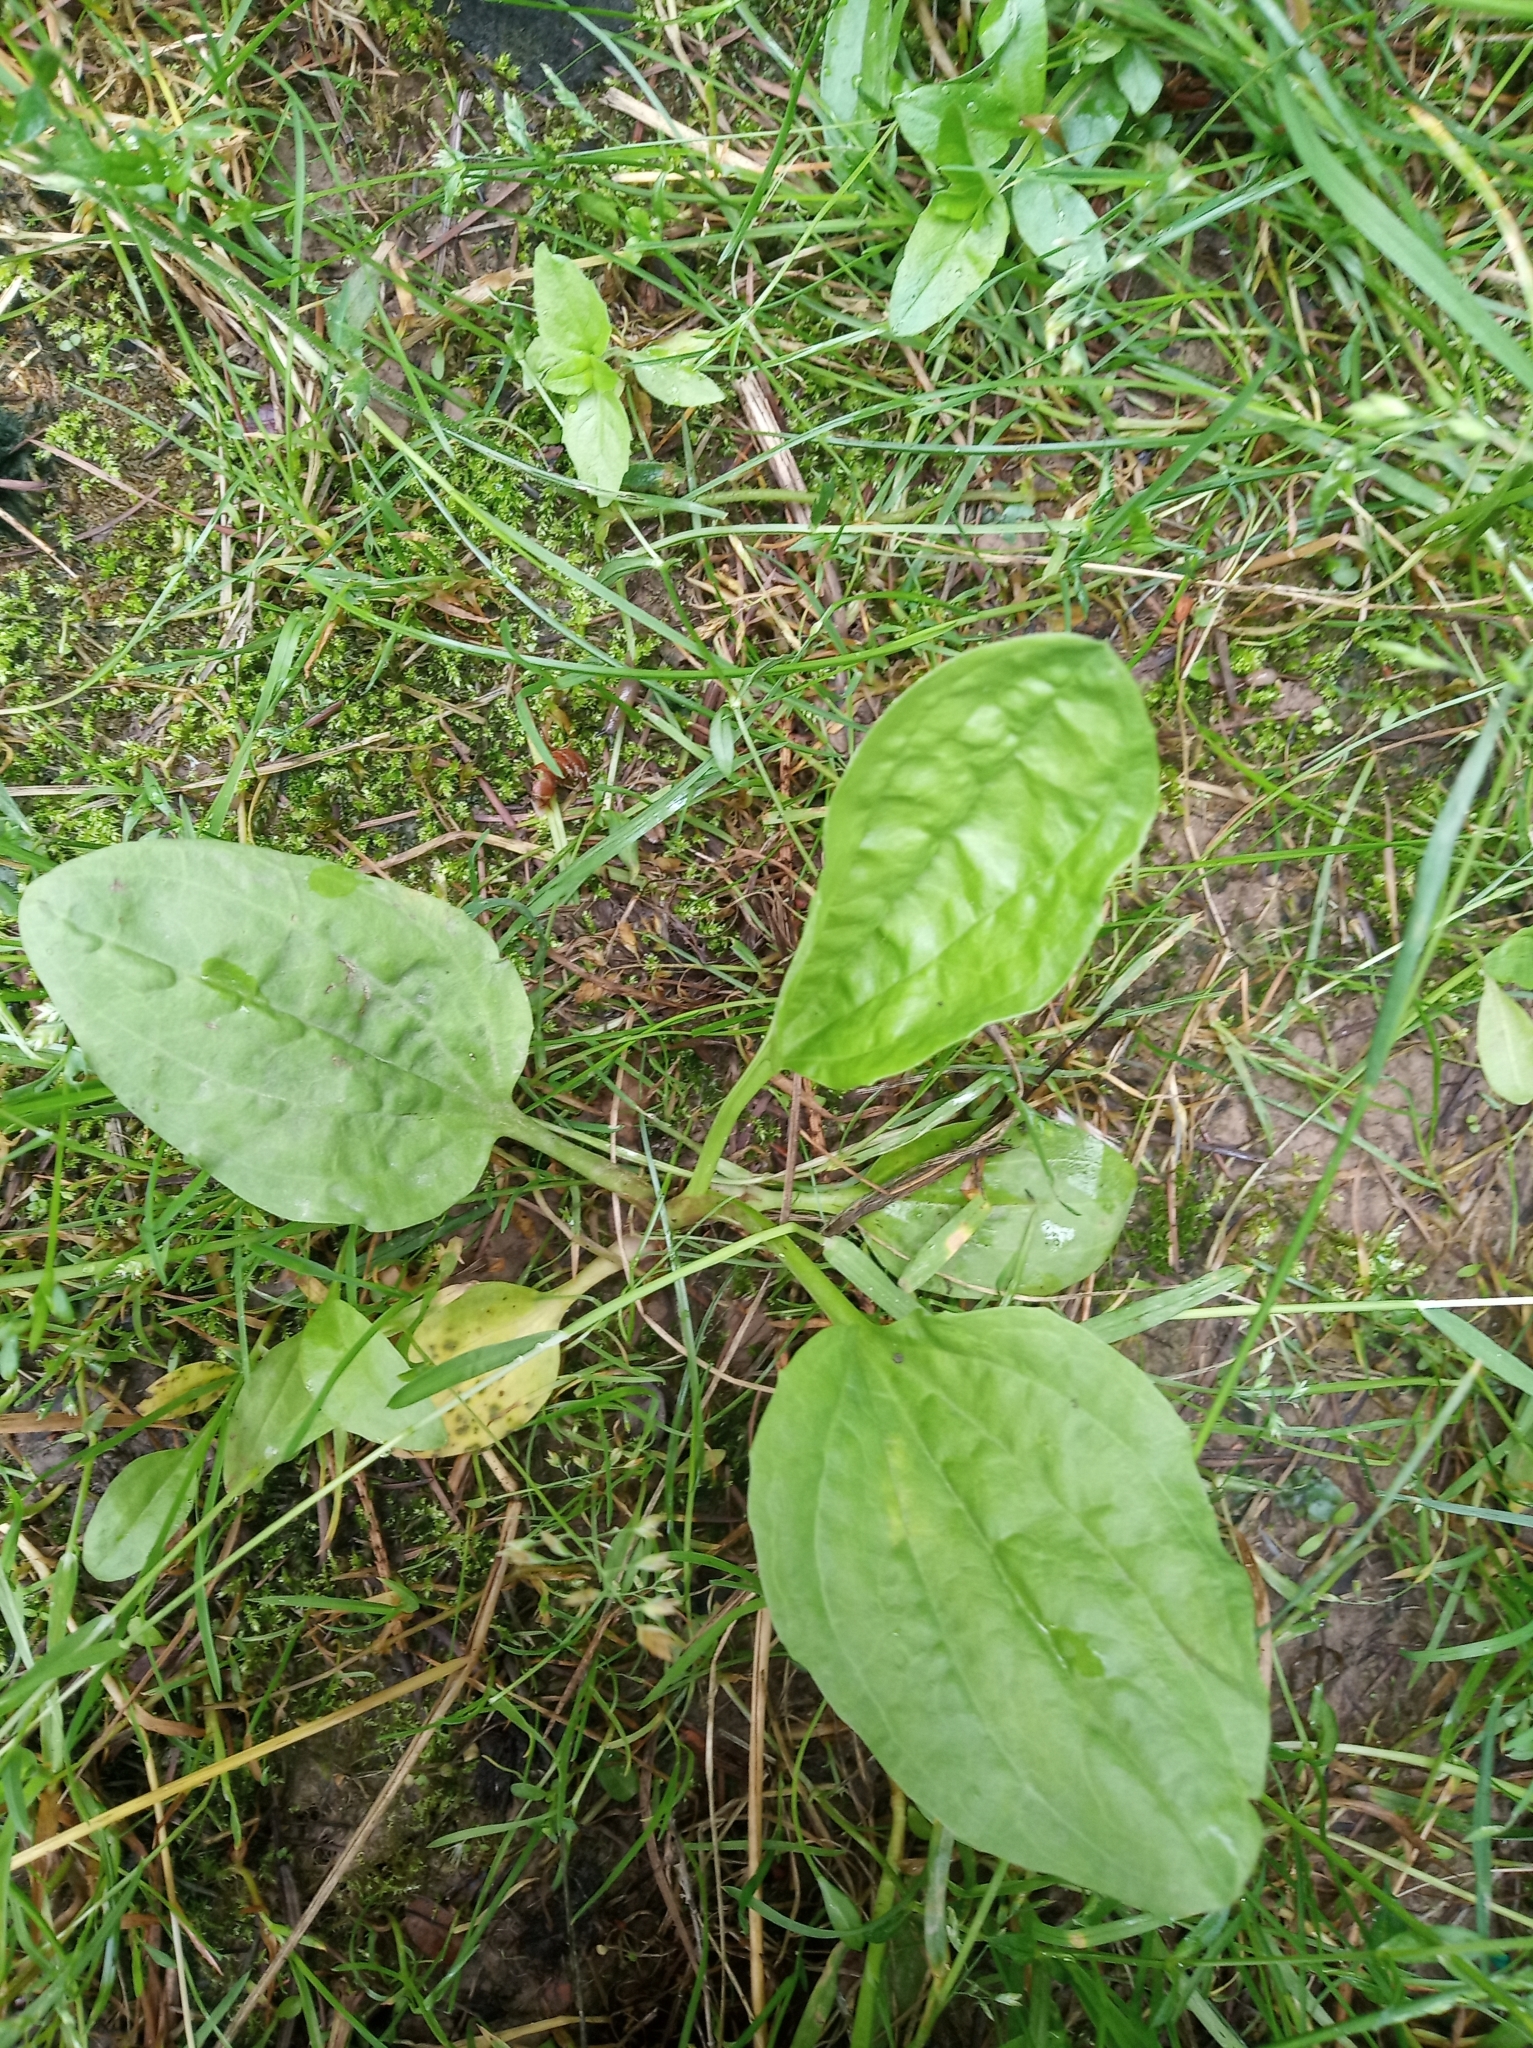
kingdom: Plantae
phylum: Tracheophyta
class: Magnoliopsida
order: Lamiales
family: Plantaginaceae
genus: Plantago
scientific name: Plantago major
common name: Common plantain
